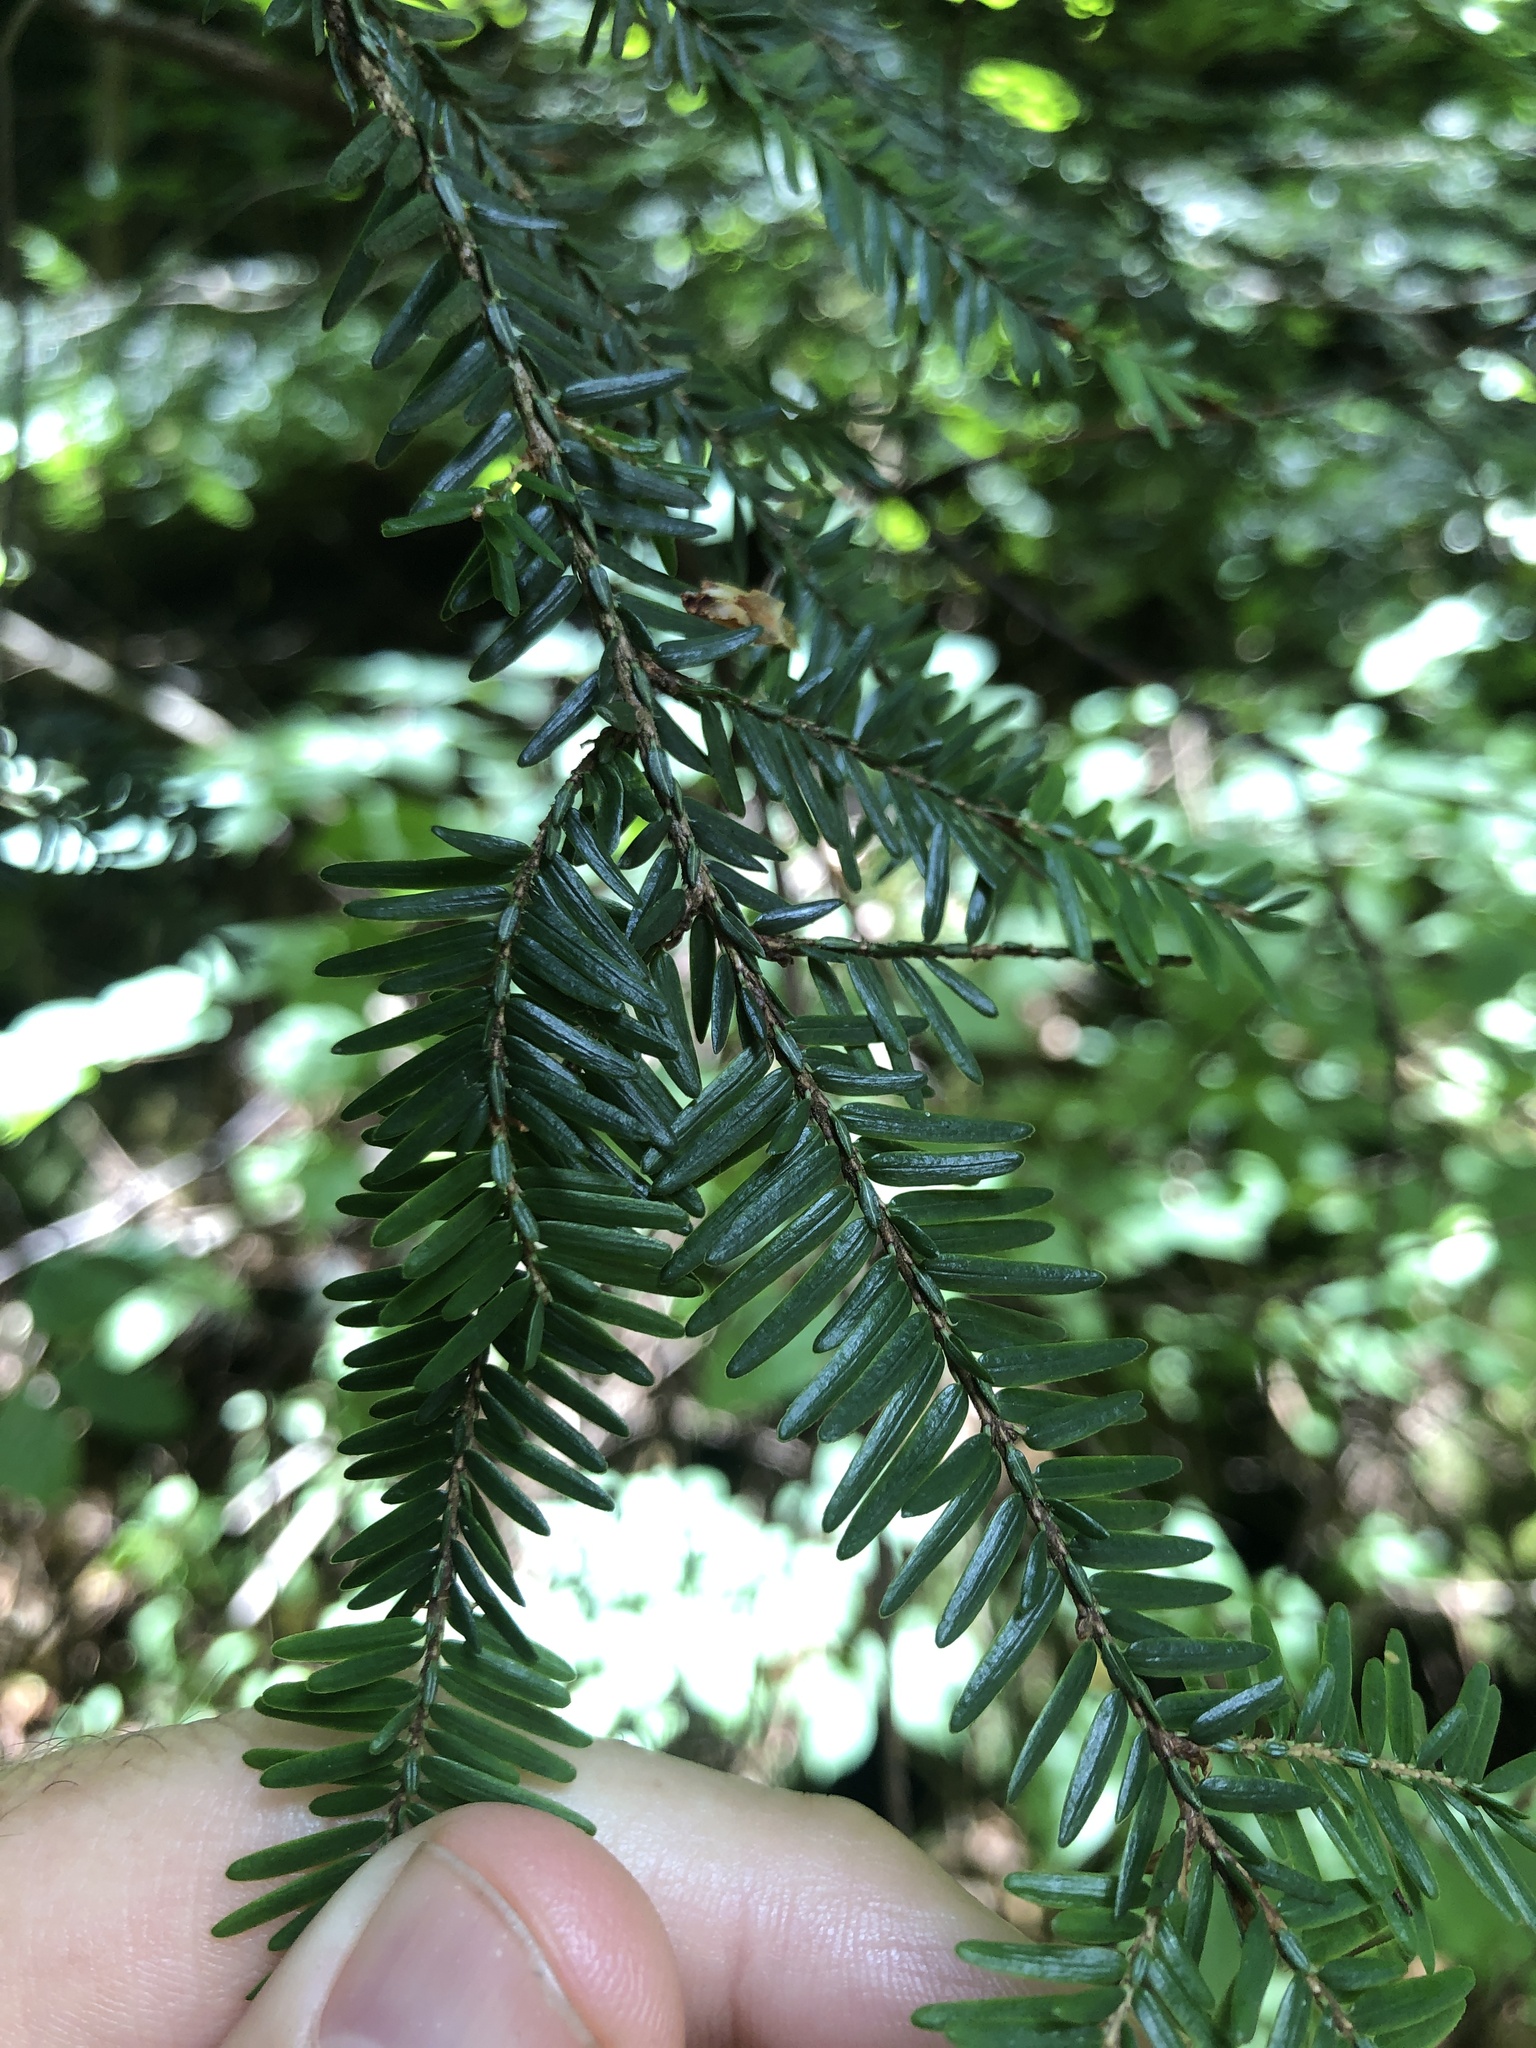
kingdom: Plantae
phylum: Tracheophyta
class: Pinopsida
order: Pinales
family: Pinaceae
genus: Tsuga
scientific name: Tsuga canadensis
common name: Eastern hemlock
